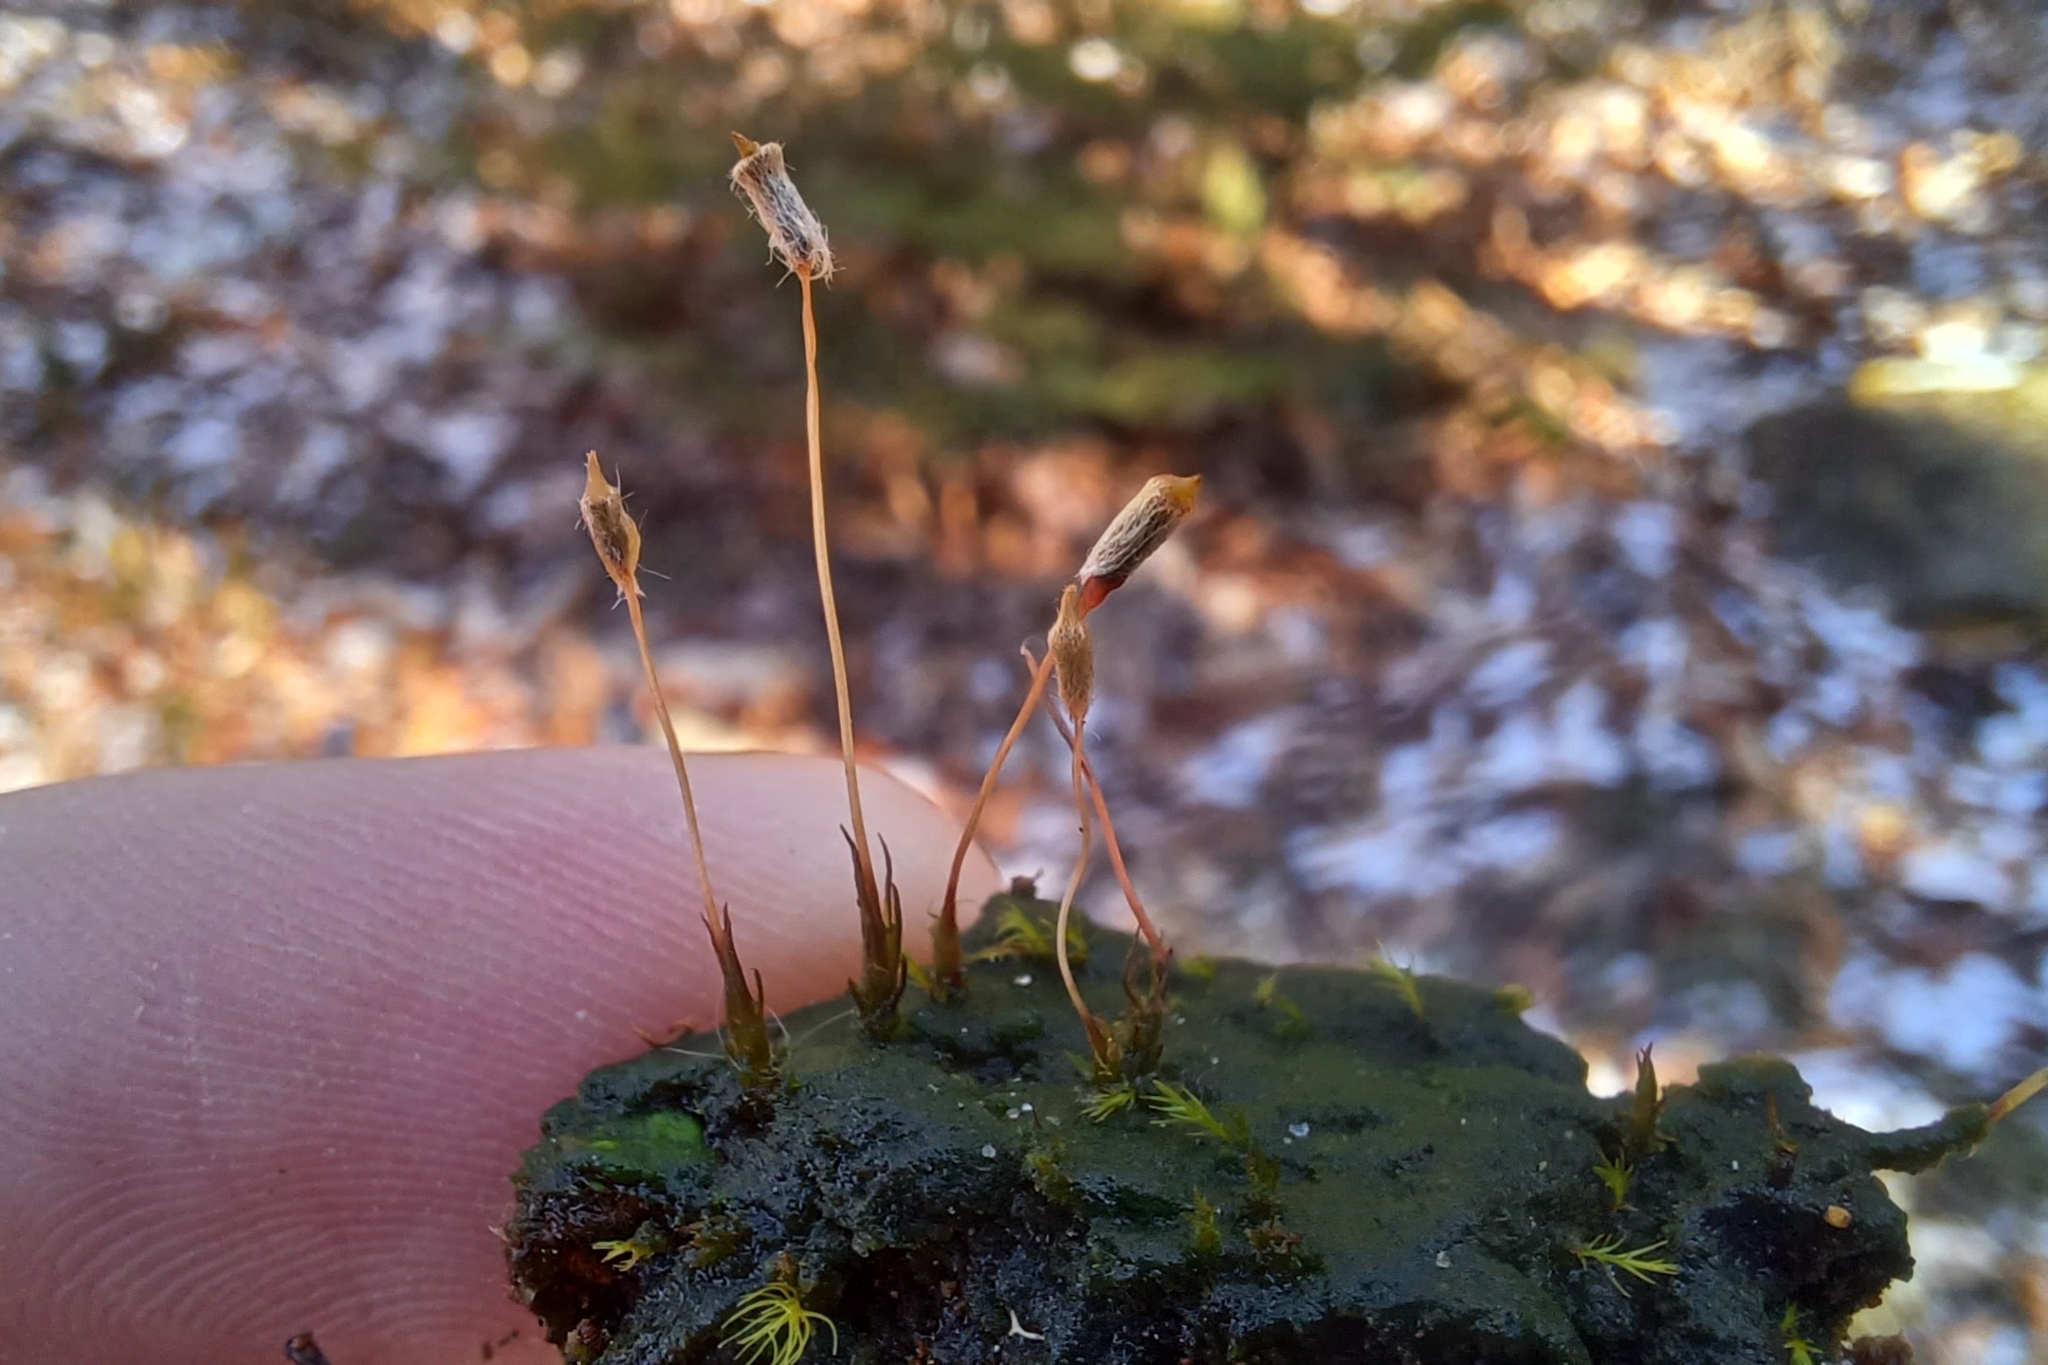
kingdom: Plantae
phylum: Bryophyta
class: Polytrichopsida
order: Polytrichales
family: Polytrichaceae
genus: Pogonatum
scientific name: Pogonatum pensilvanicum
